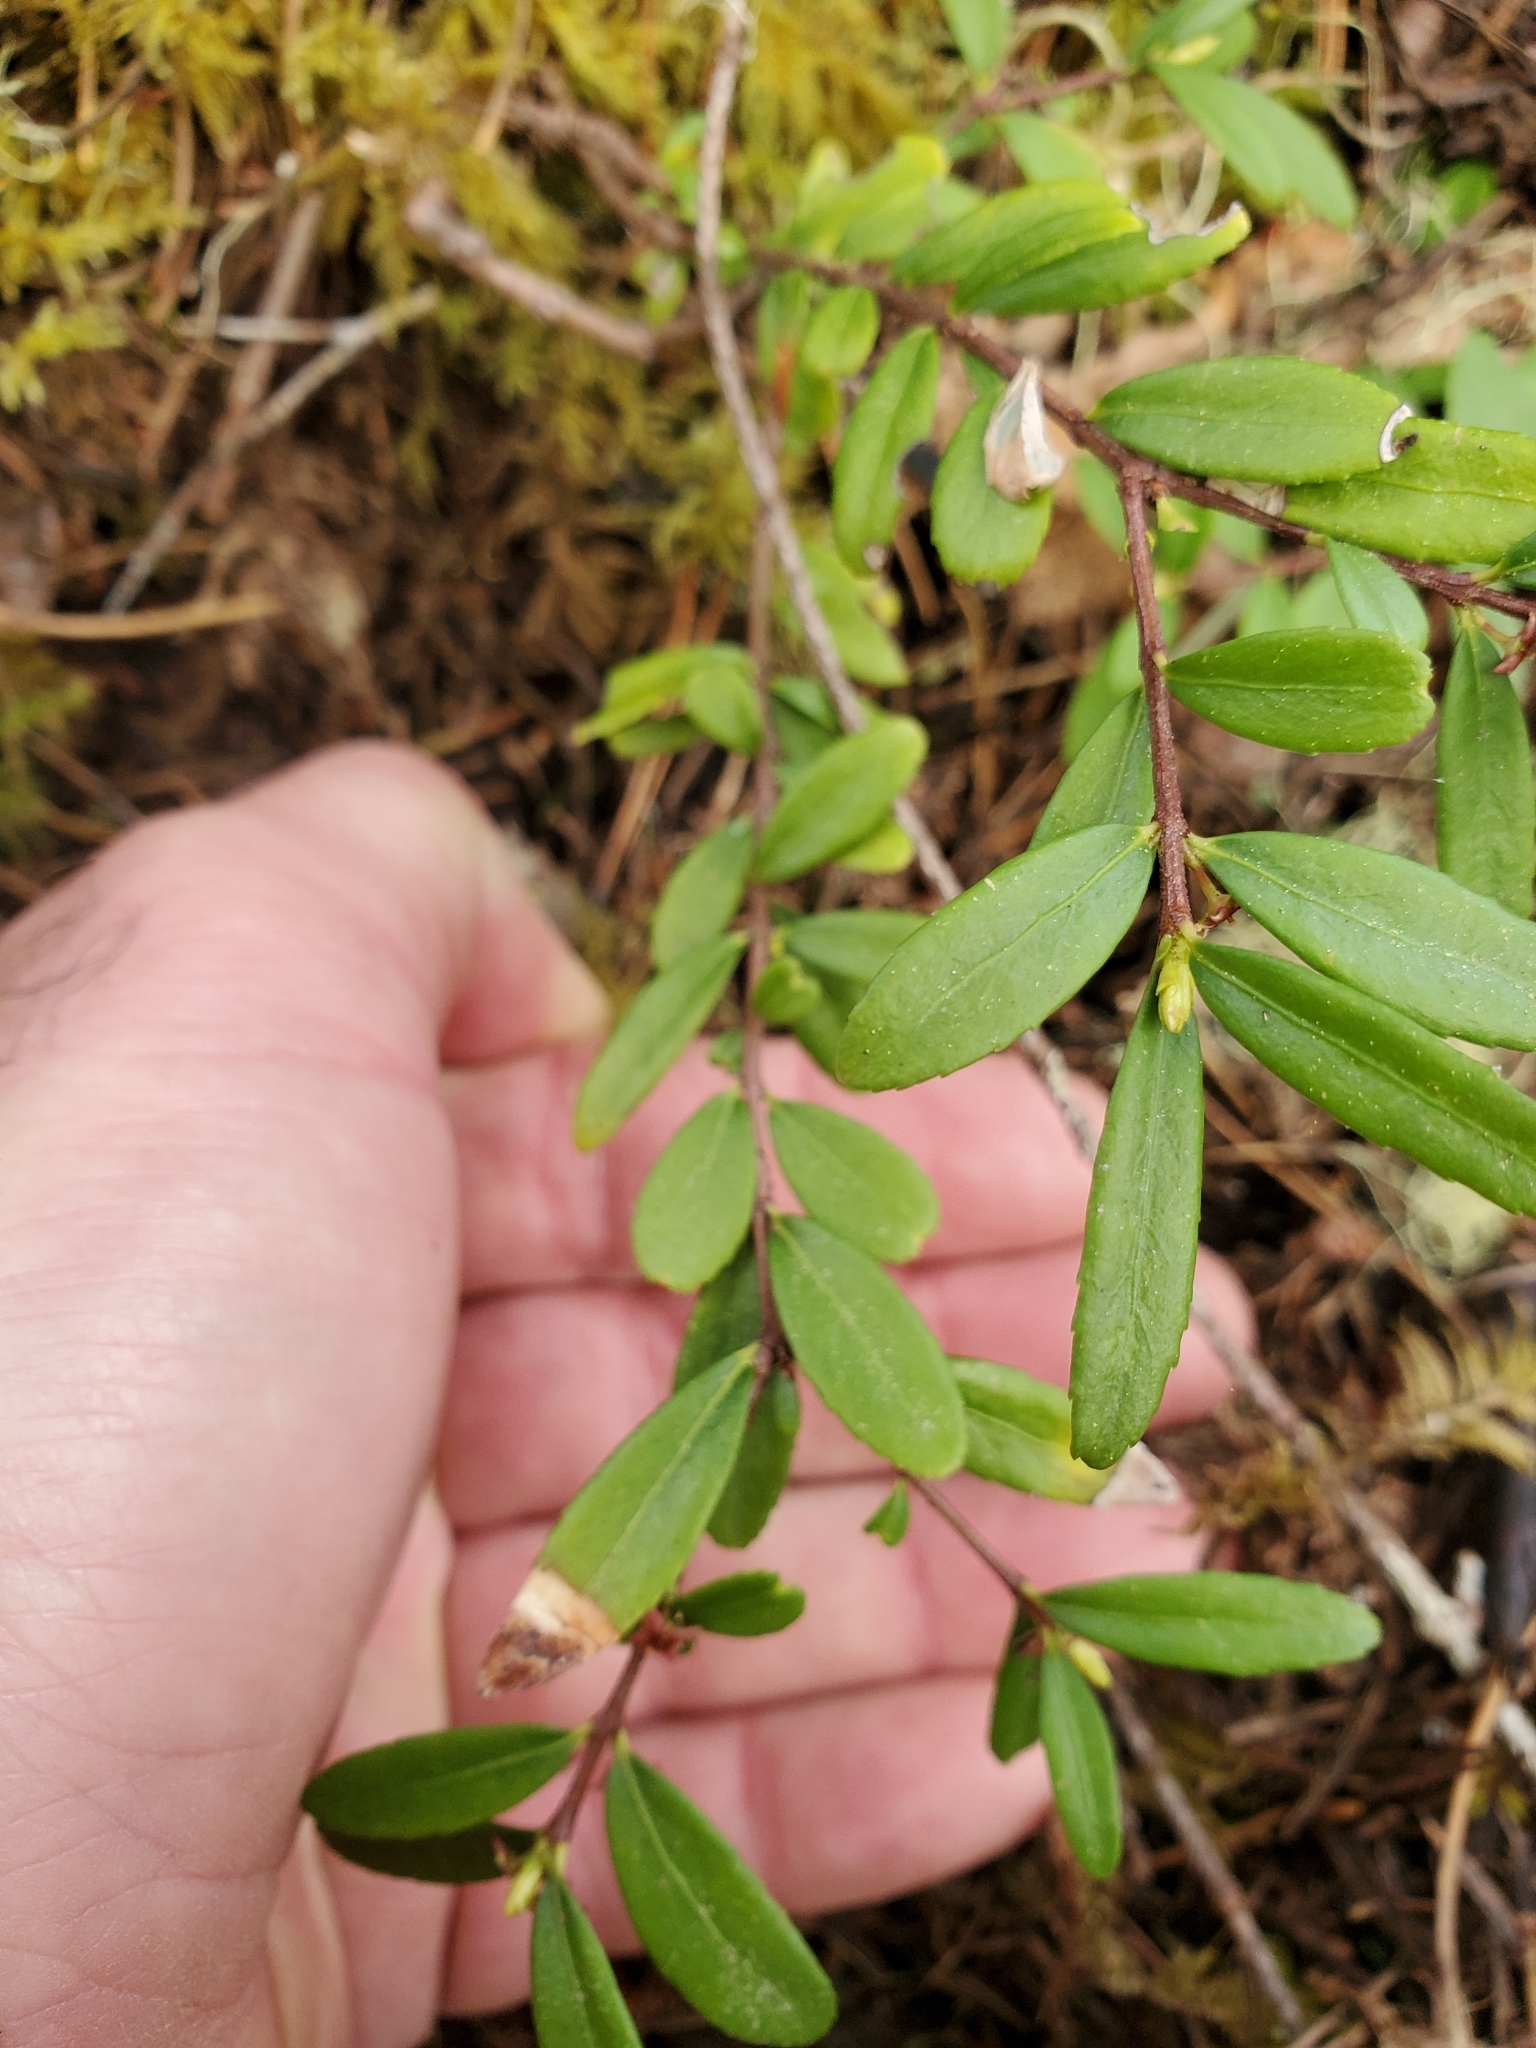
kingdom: Plantae
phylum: Tracheophyta
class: Magnoliopsida
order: Celastrales
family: Celastraceae
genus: Paxistima
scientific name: Paxistima myrsinites
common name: Mountain-lover
